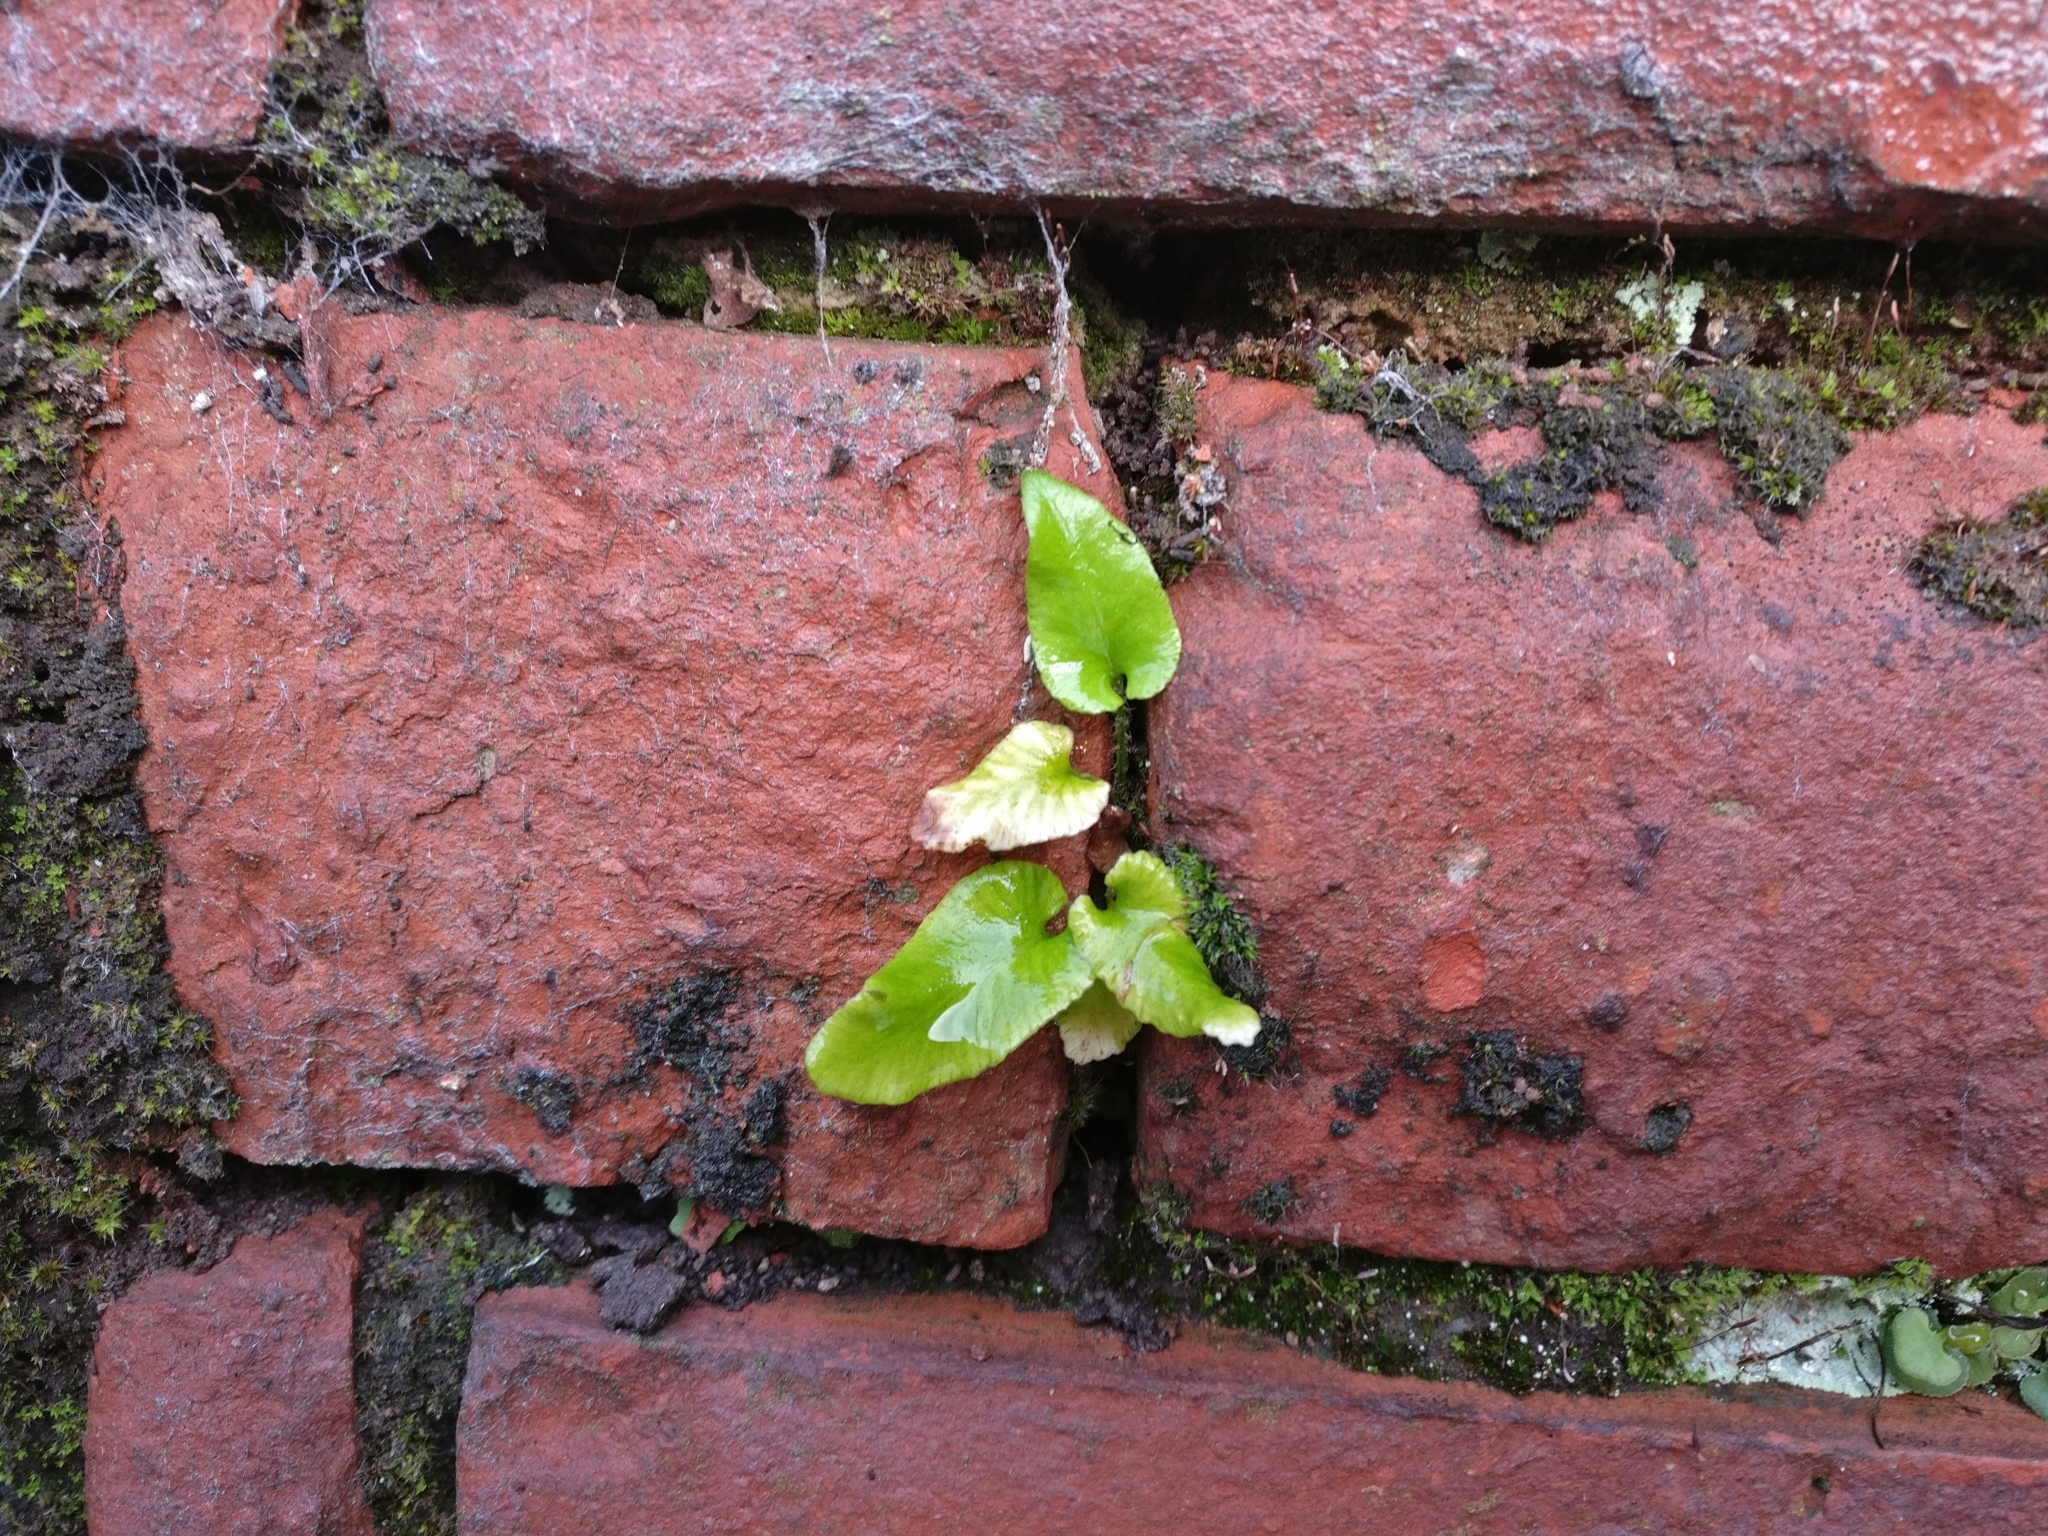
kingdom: Plantae
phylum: Tracheophyta
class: Polypodiopsida
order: Polypodiales
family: Aspleniaceae
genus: Asplenium
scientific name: Asplenium scolopendrium
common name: Hart's-tongue fern
